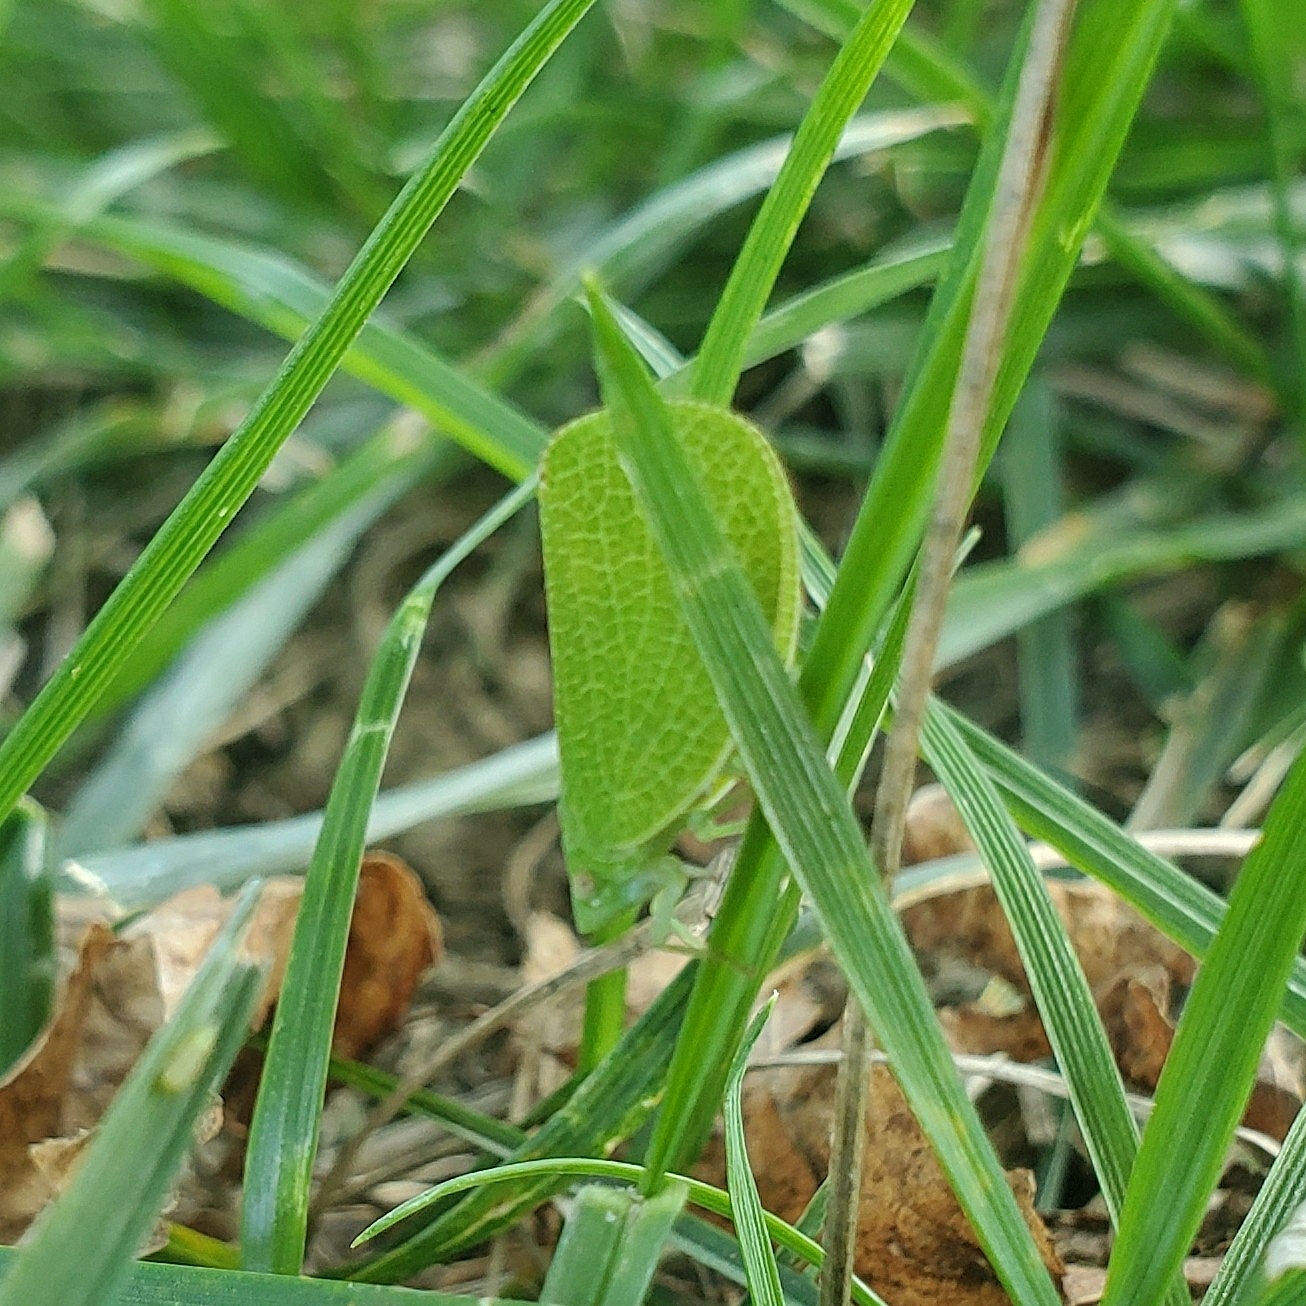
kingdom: Animalia
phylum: Arthropoda
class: Insecta
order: Hemiptera
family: Acanaloniidae
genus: Acanalonia
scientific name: Acanalonia conica
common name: Green cone-headed planthopper
